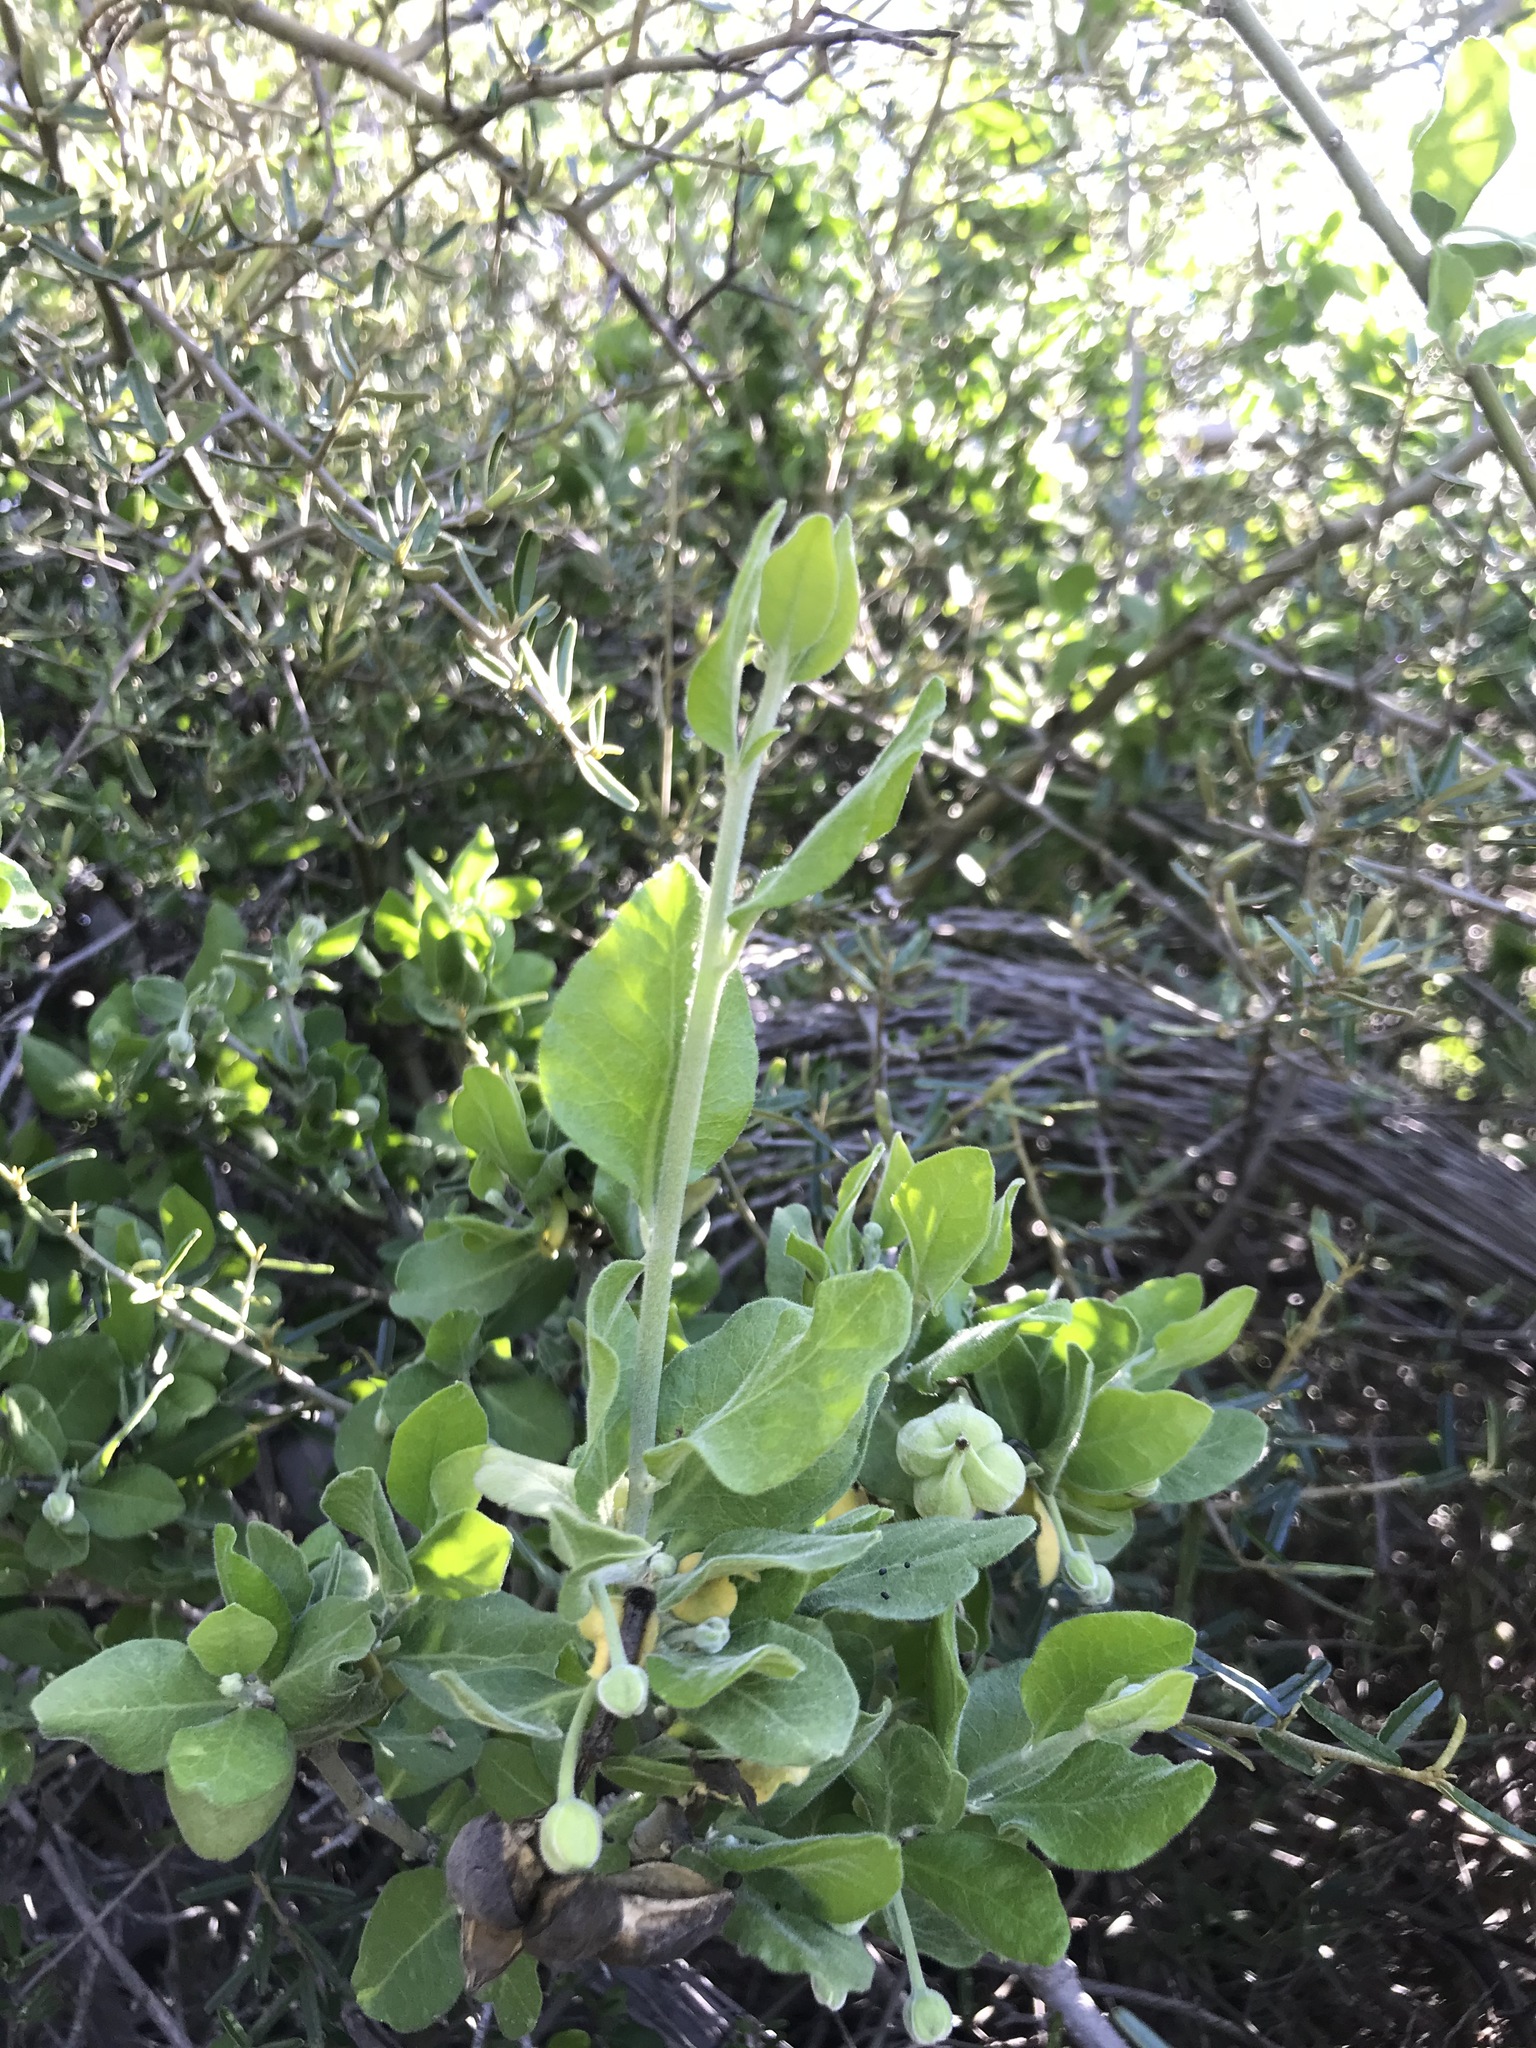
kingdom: Plantae
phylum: Tracheophyta
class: Magnoliopsida
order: Zygophyllales
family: Zygophyllaceae
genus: Viscainoa
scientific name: Viscainoa geniculata
